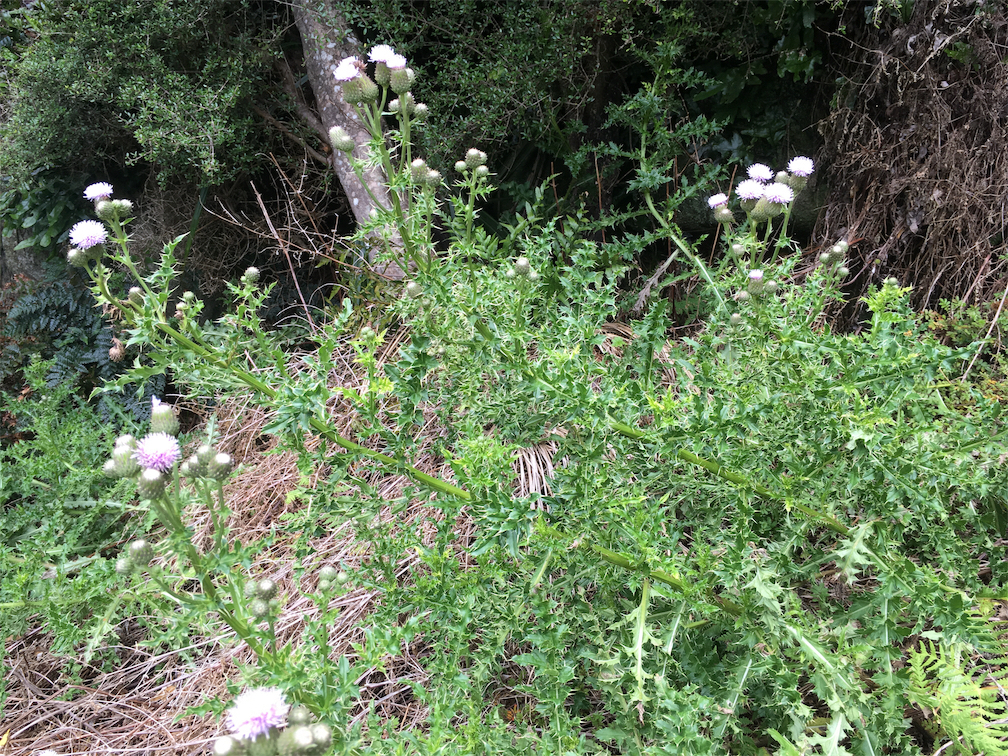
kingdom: Plantae
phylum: Tracheophyta
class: Magnoliopsida
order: Asterales
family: Asteraceae
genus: Cirsium
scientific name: Cirsium arvense
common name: Creeping thistle
